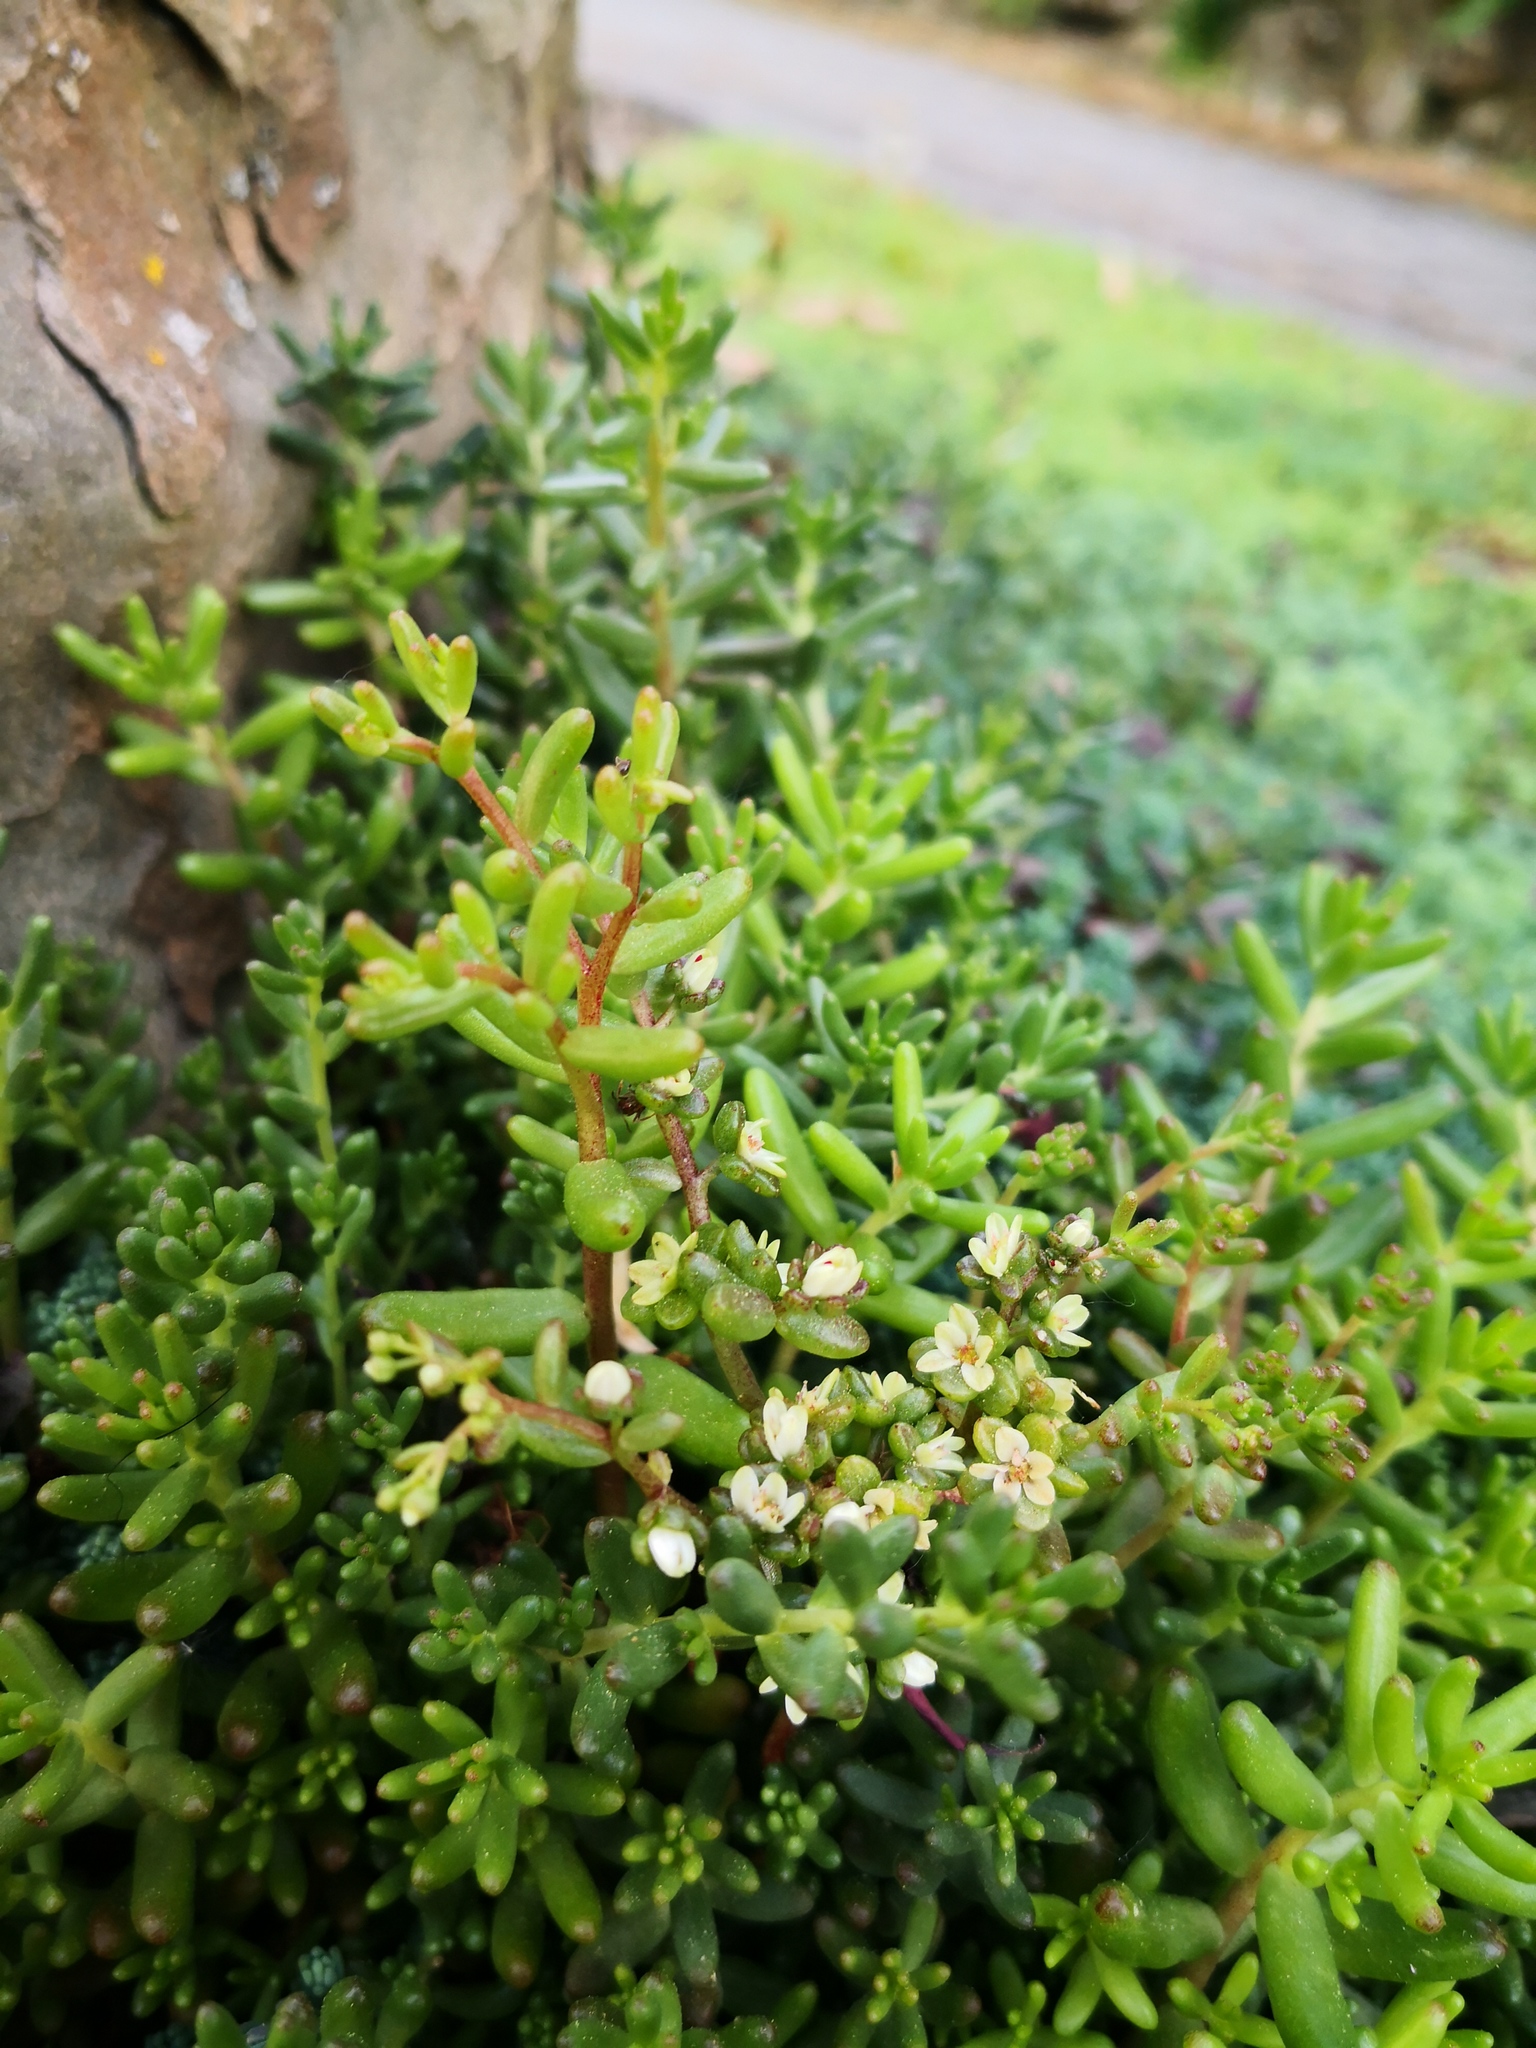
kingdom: Plantae
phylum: Tracheophyta
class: Magnoliopsida
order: Saxifragales
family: Crassulaceae
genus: Sedum
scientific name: Sedum album
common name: White stonecrop
